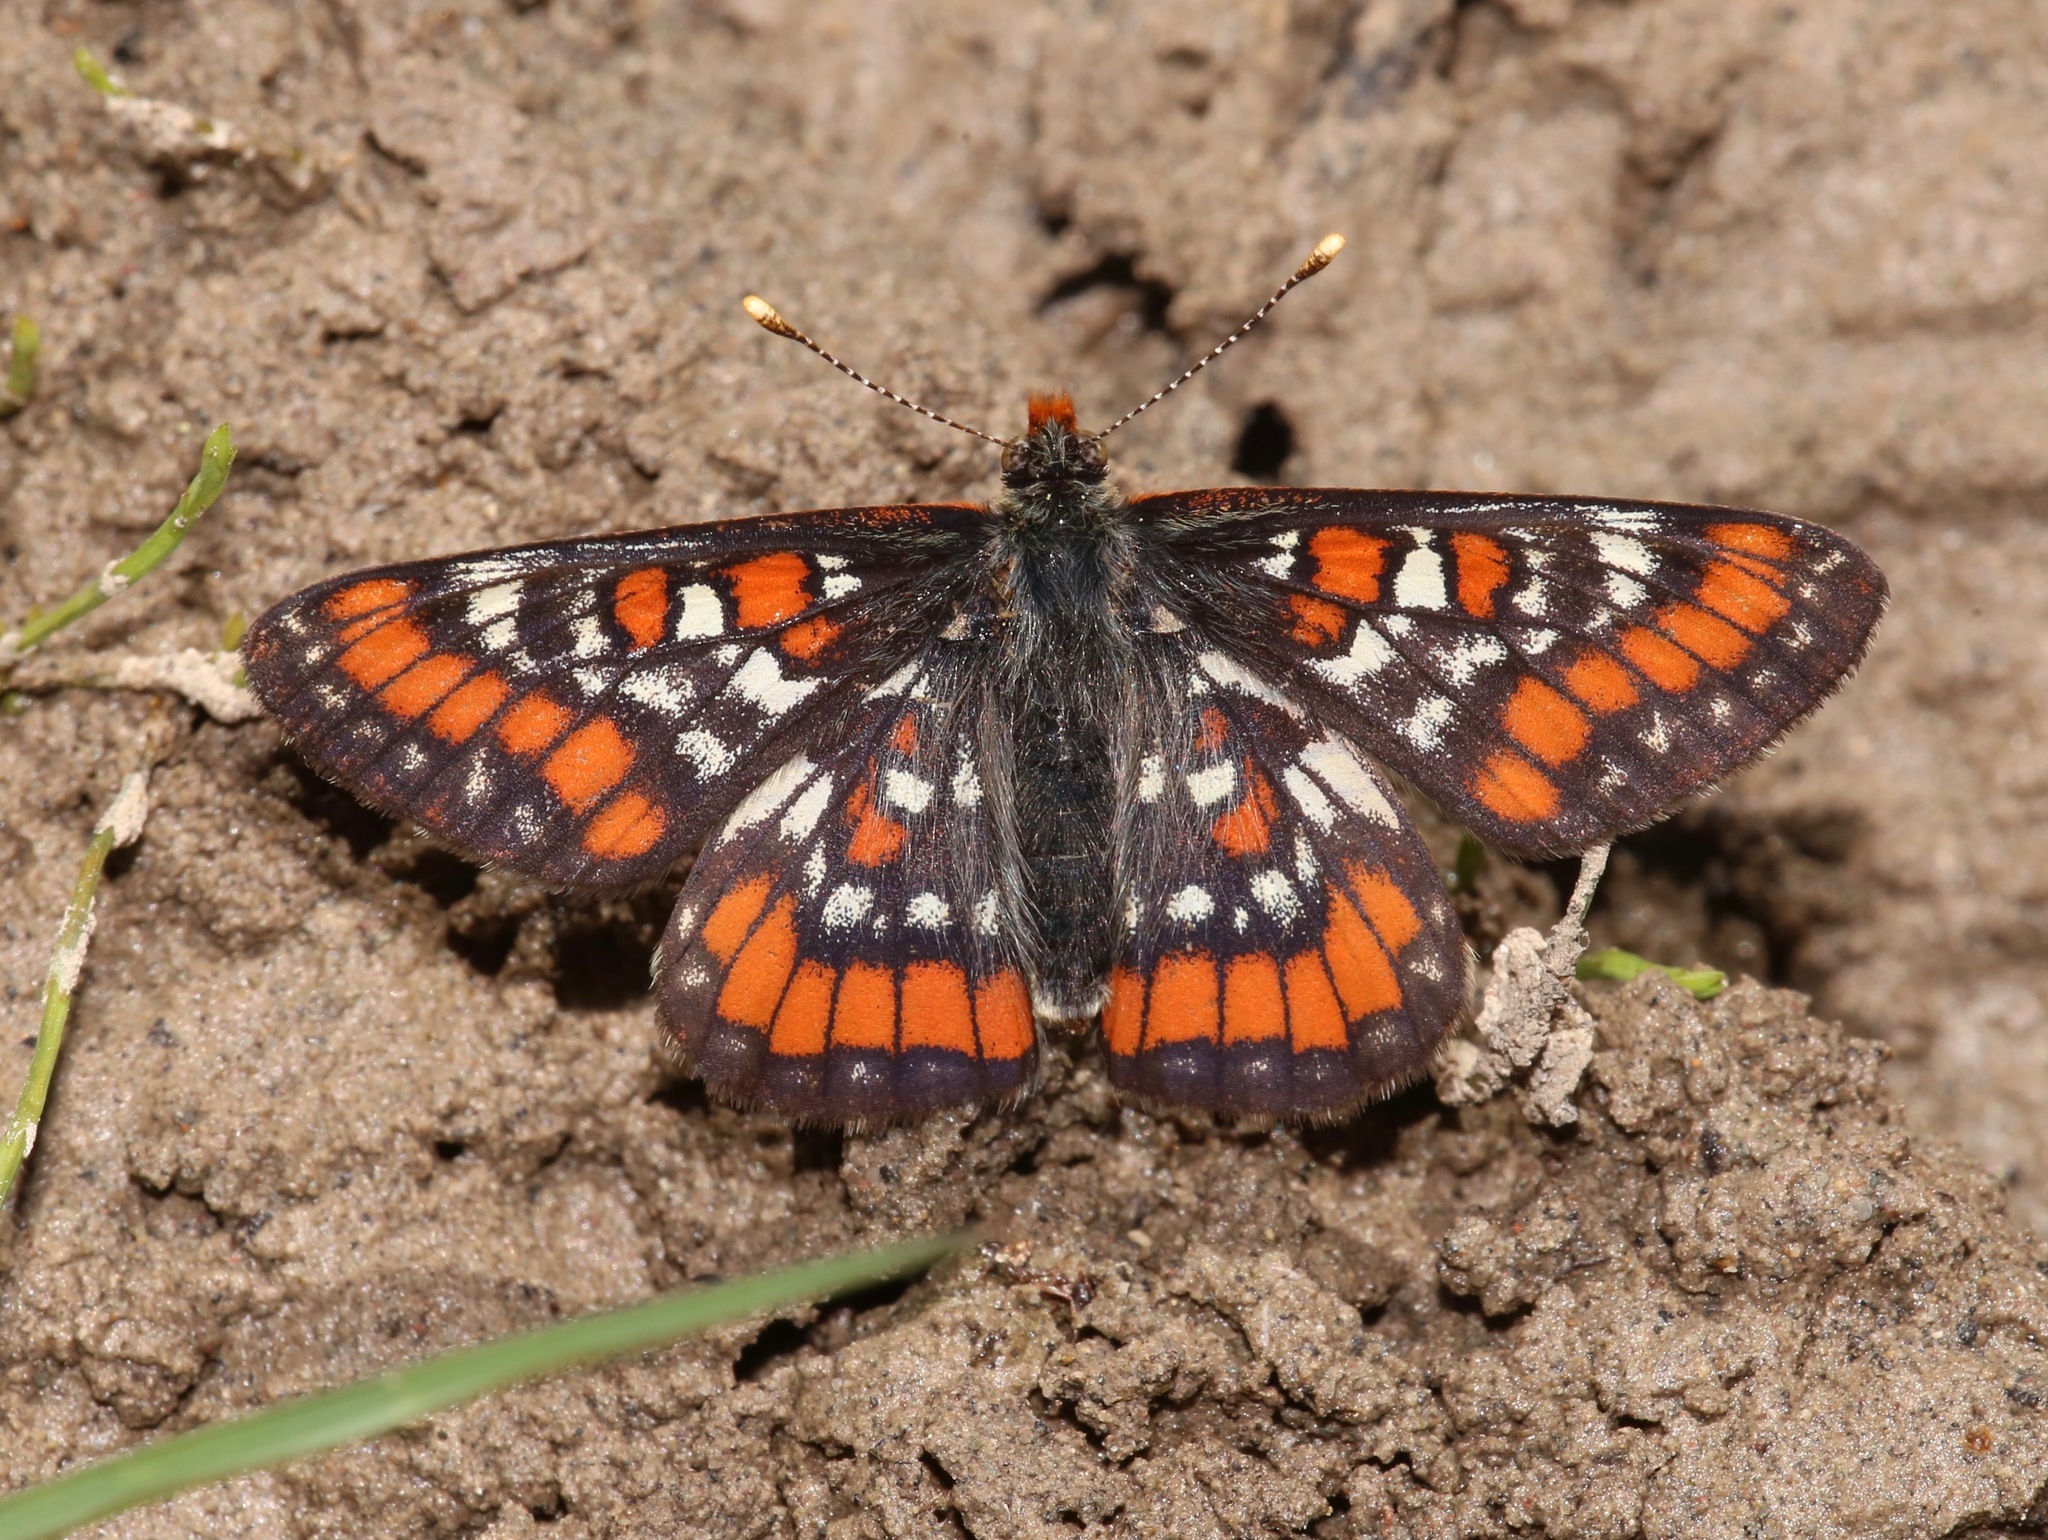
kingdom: Animalia
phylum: Arthropoda
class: Insecta
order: Lepidoptera
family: Nymphalidae
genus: Hypodryas
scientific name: Hypodryas gillettii
